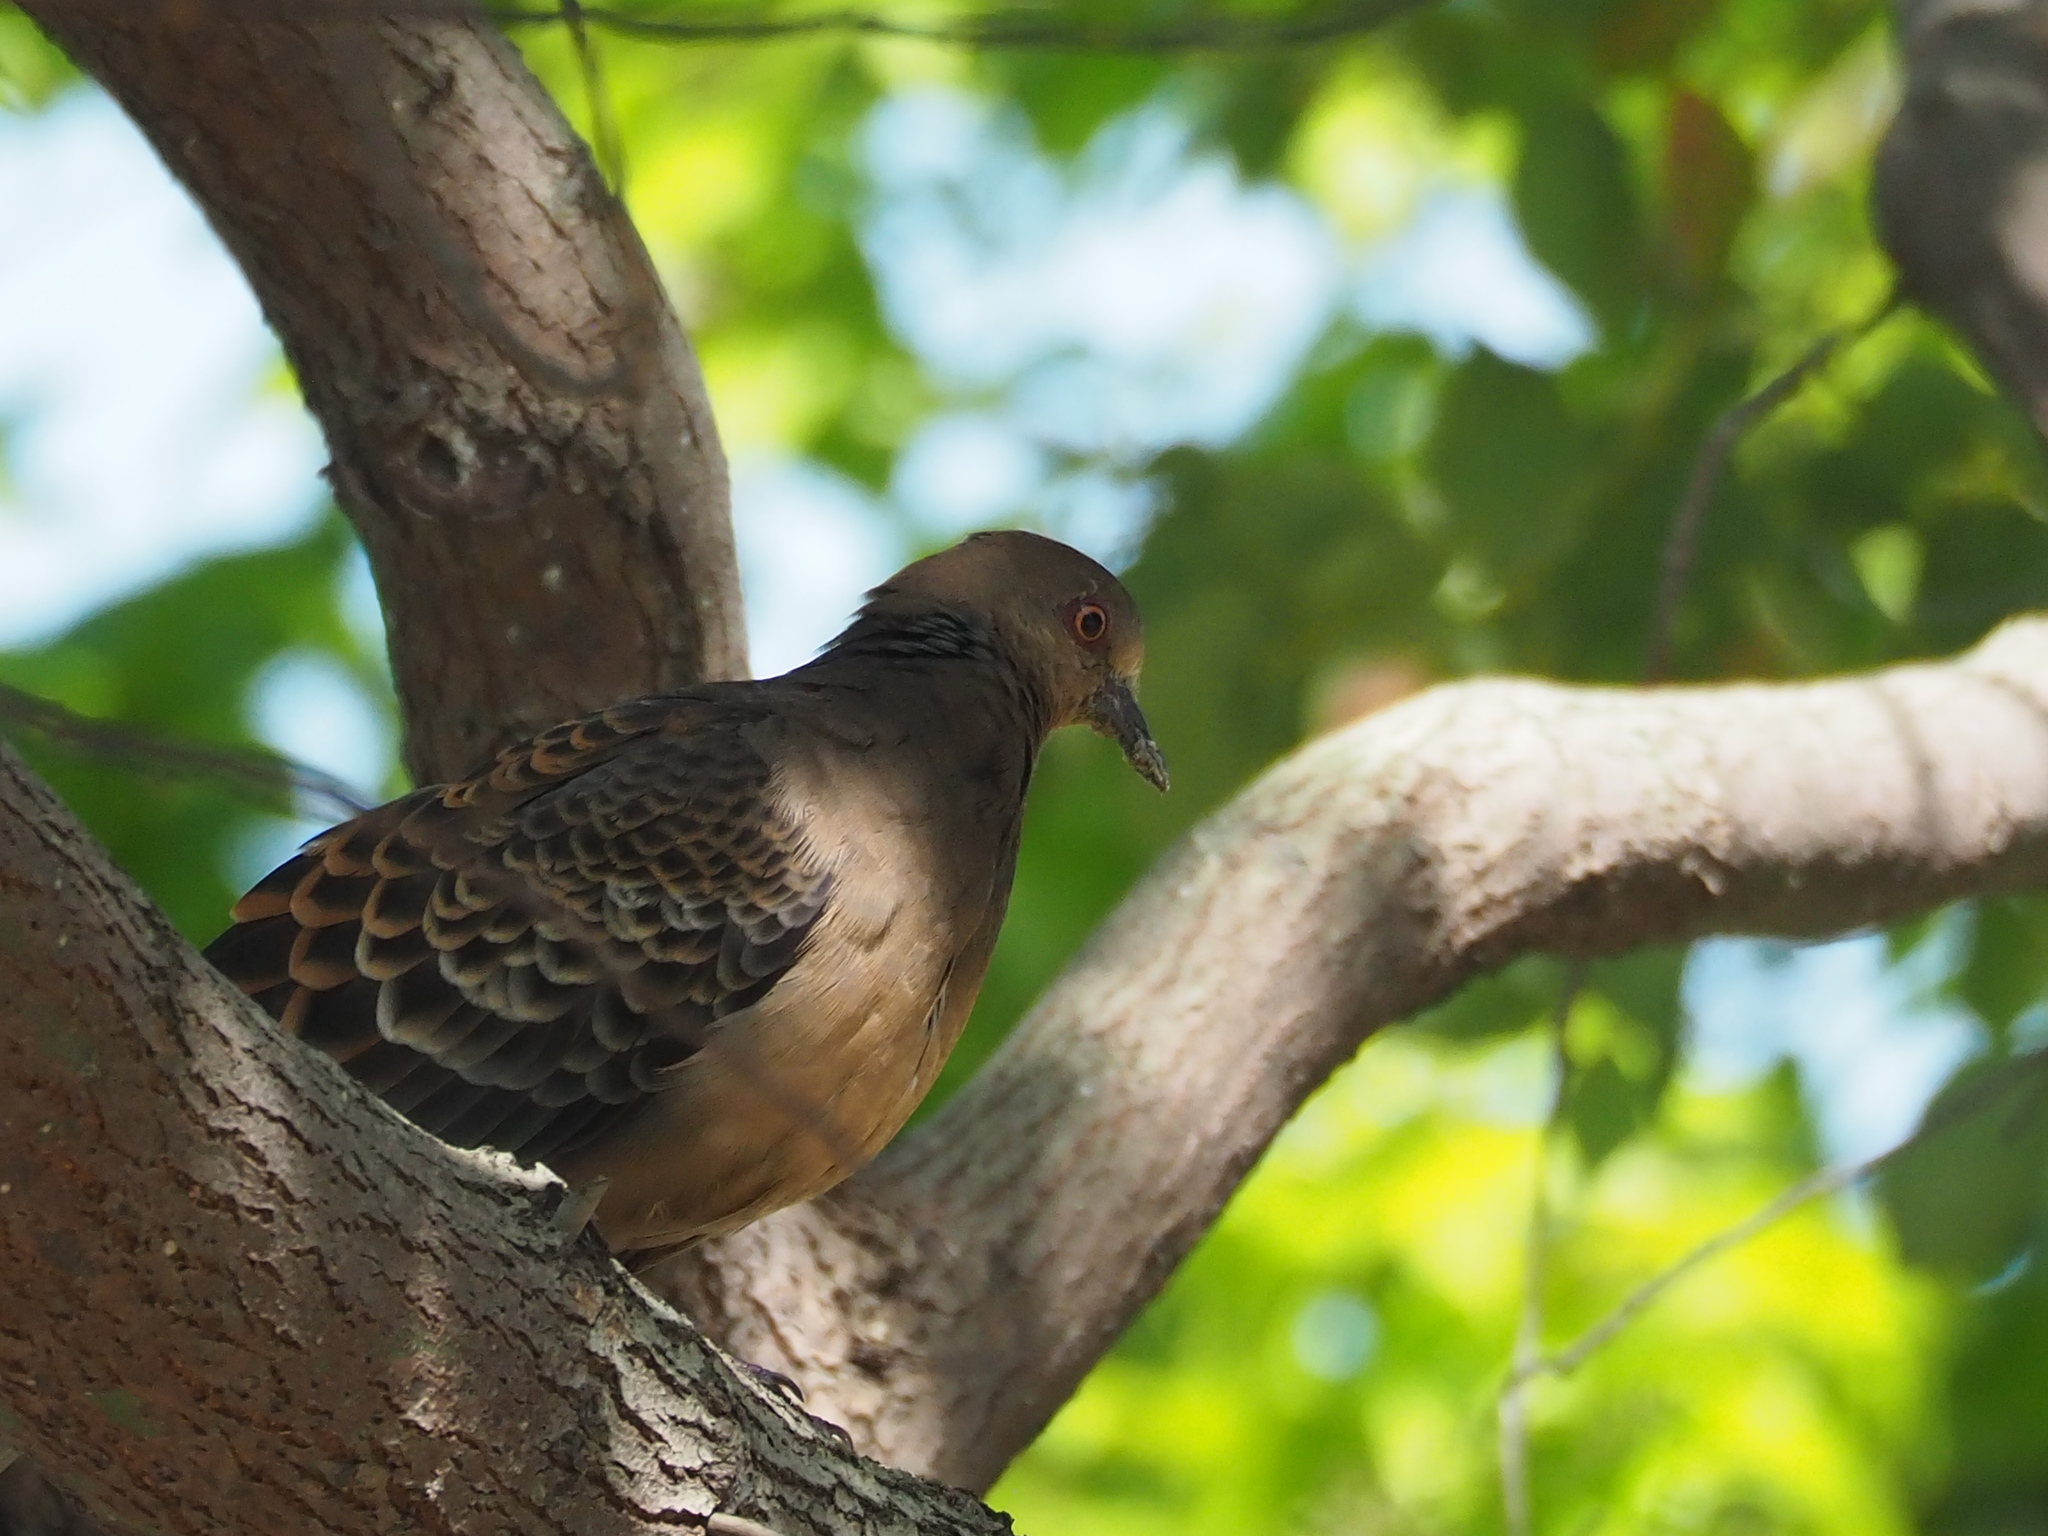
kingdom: Animalia
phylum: Chordata
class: Aves
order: Columbiformes
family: Columbidae
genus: Streptopelia
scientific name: Streptopelia orientalis
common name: Oriental turtle dove
